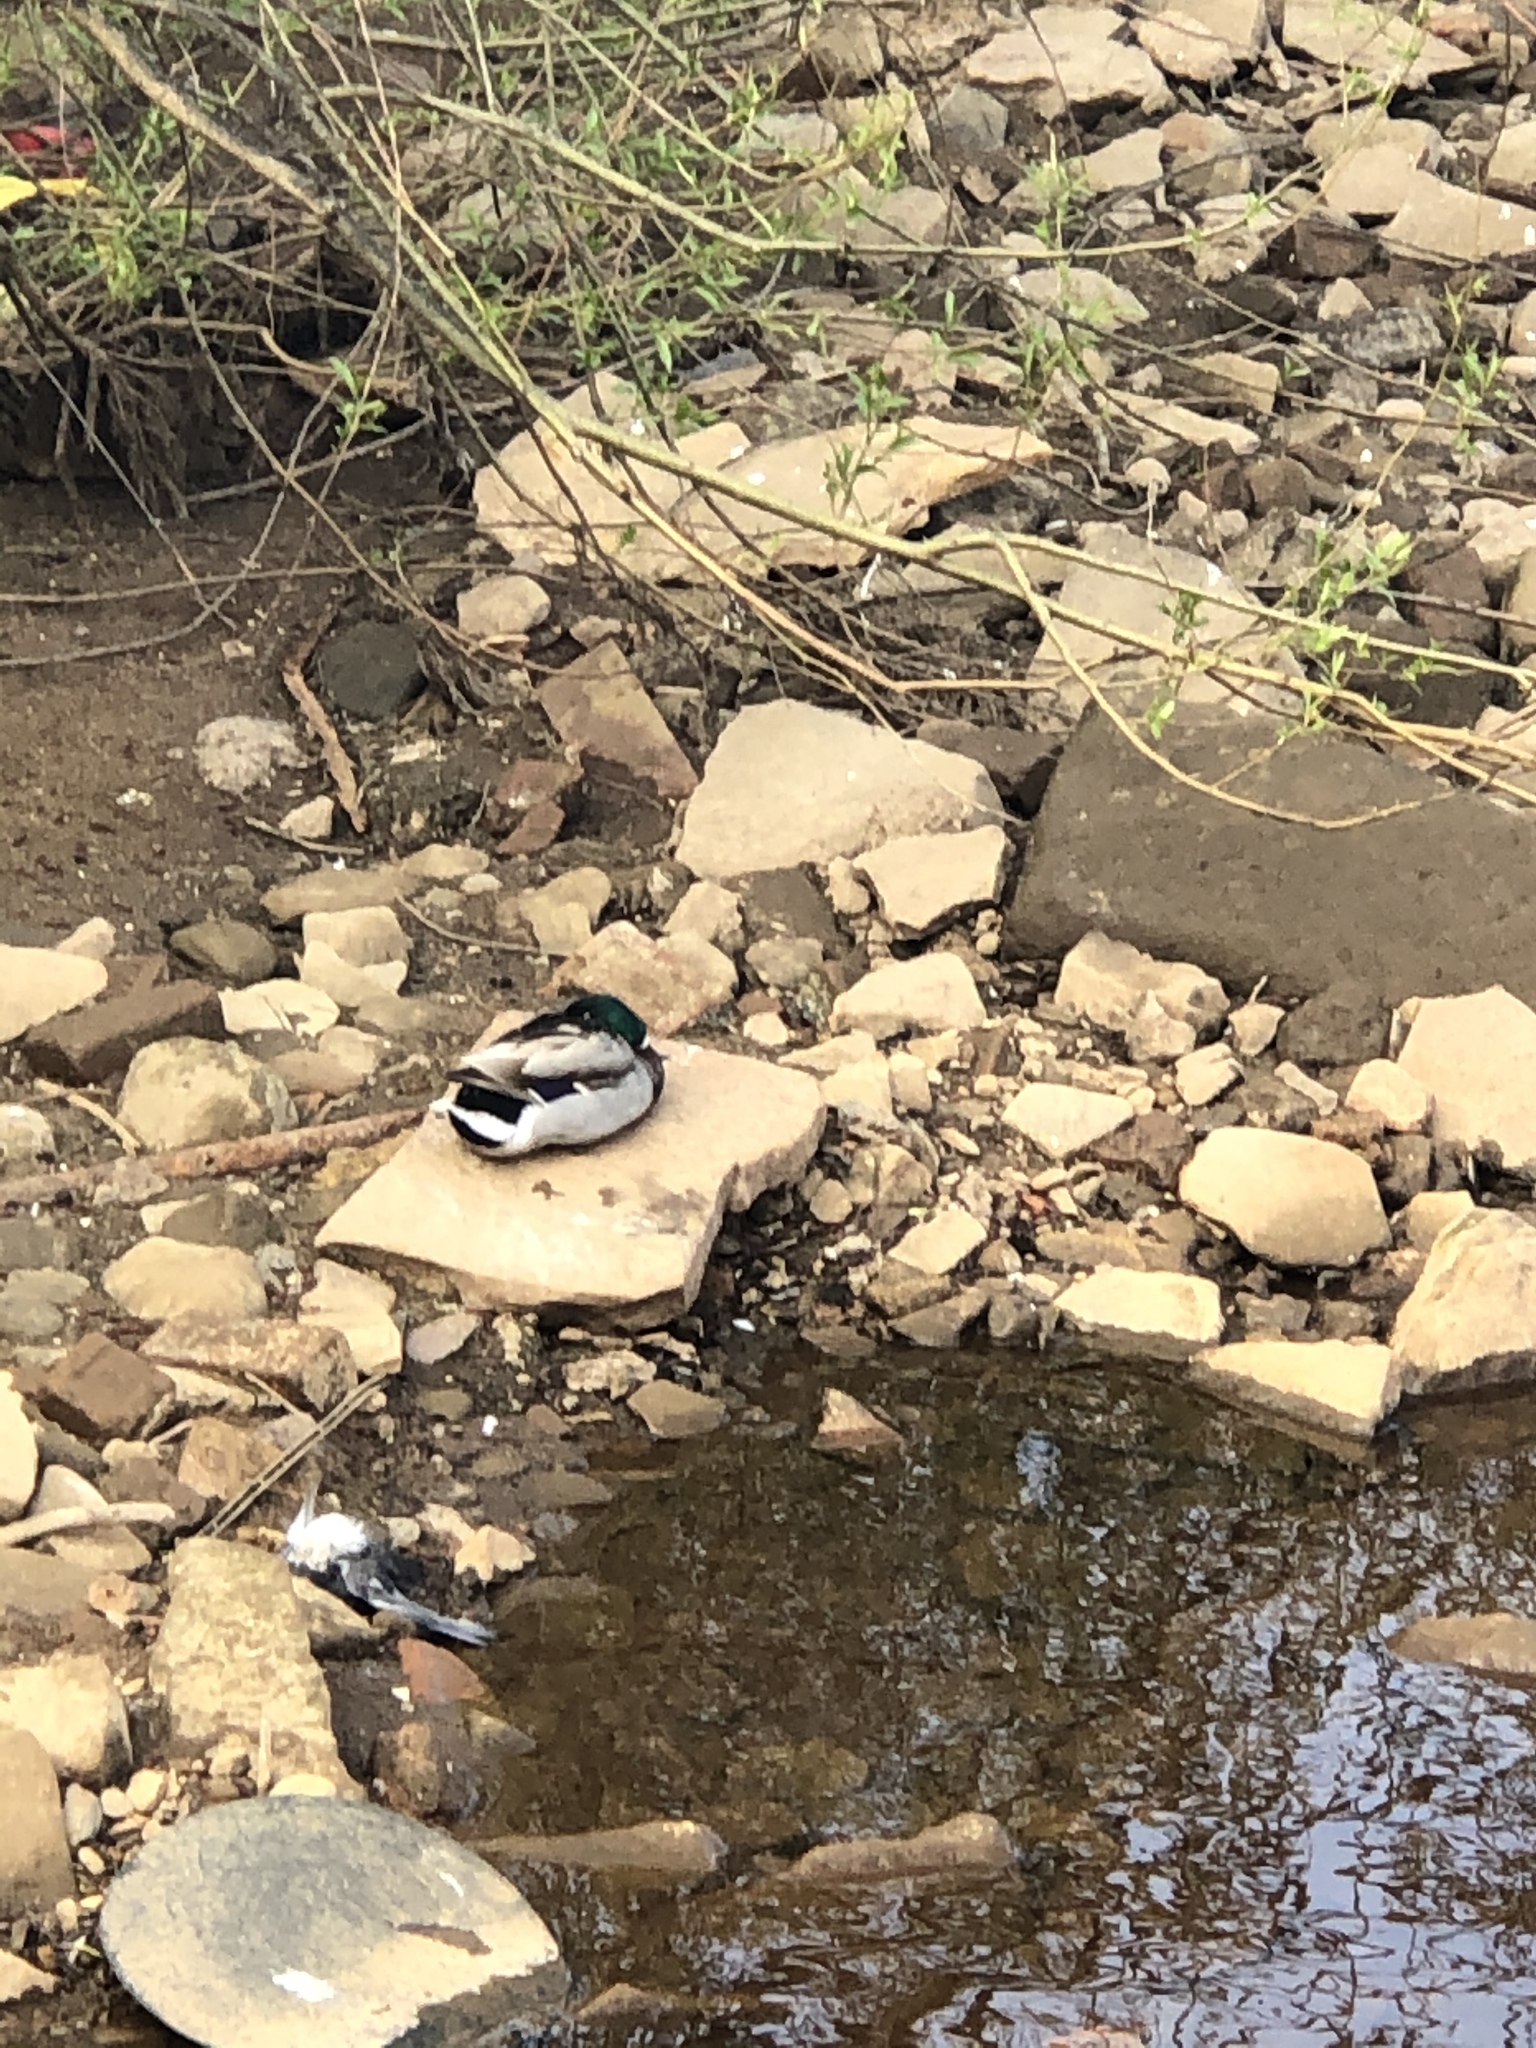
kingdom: Animalia
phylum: Chordata
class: Aves
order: Anseriformes
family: Anatidae
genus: Anas
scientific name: Anas platyrhynchos
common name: Mallard
